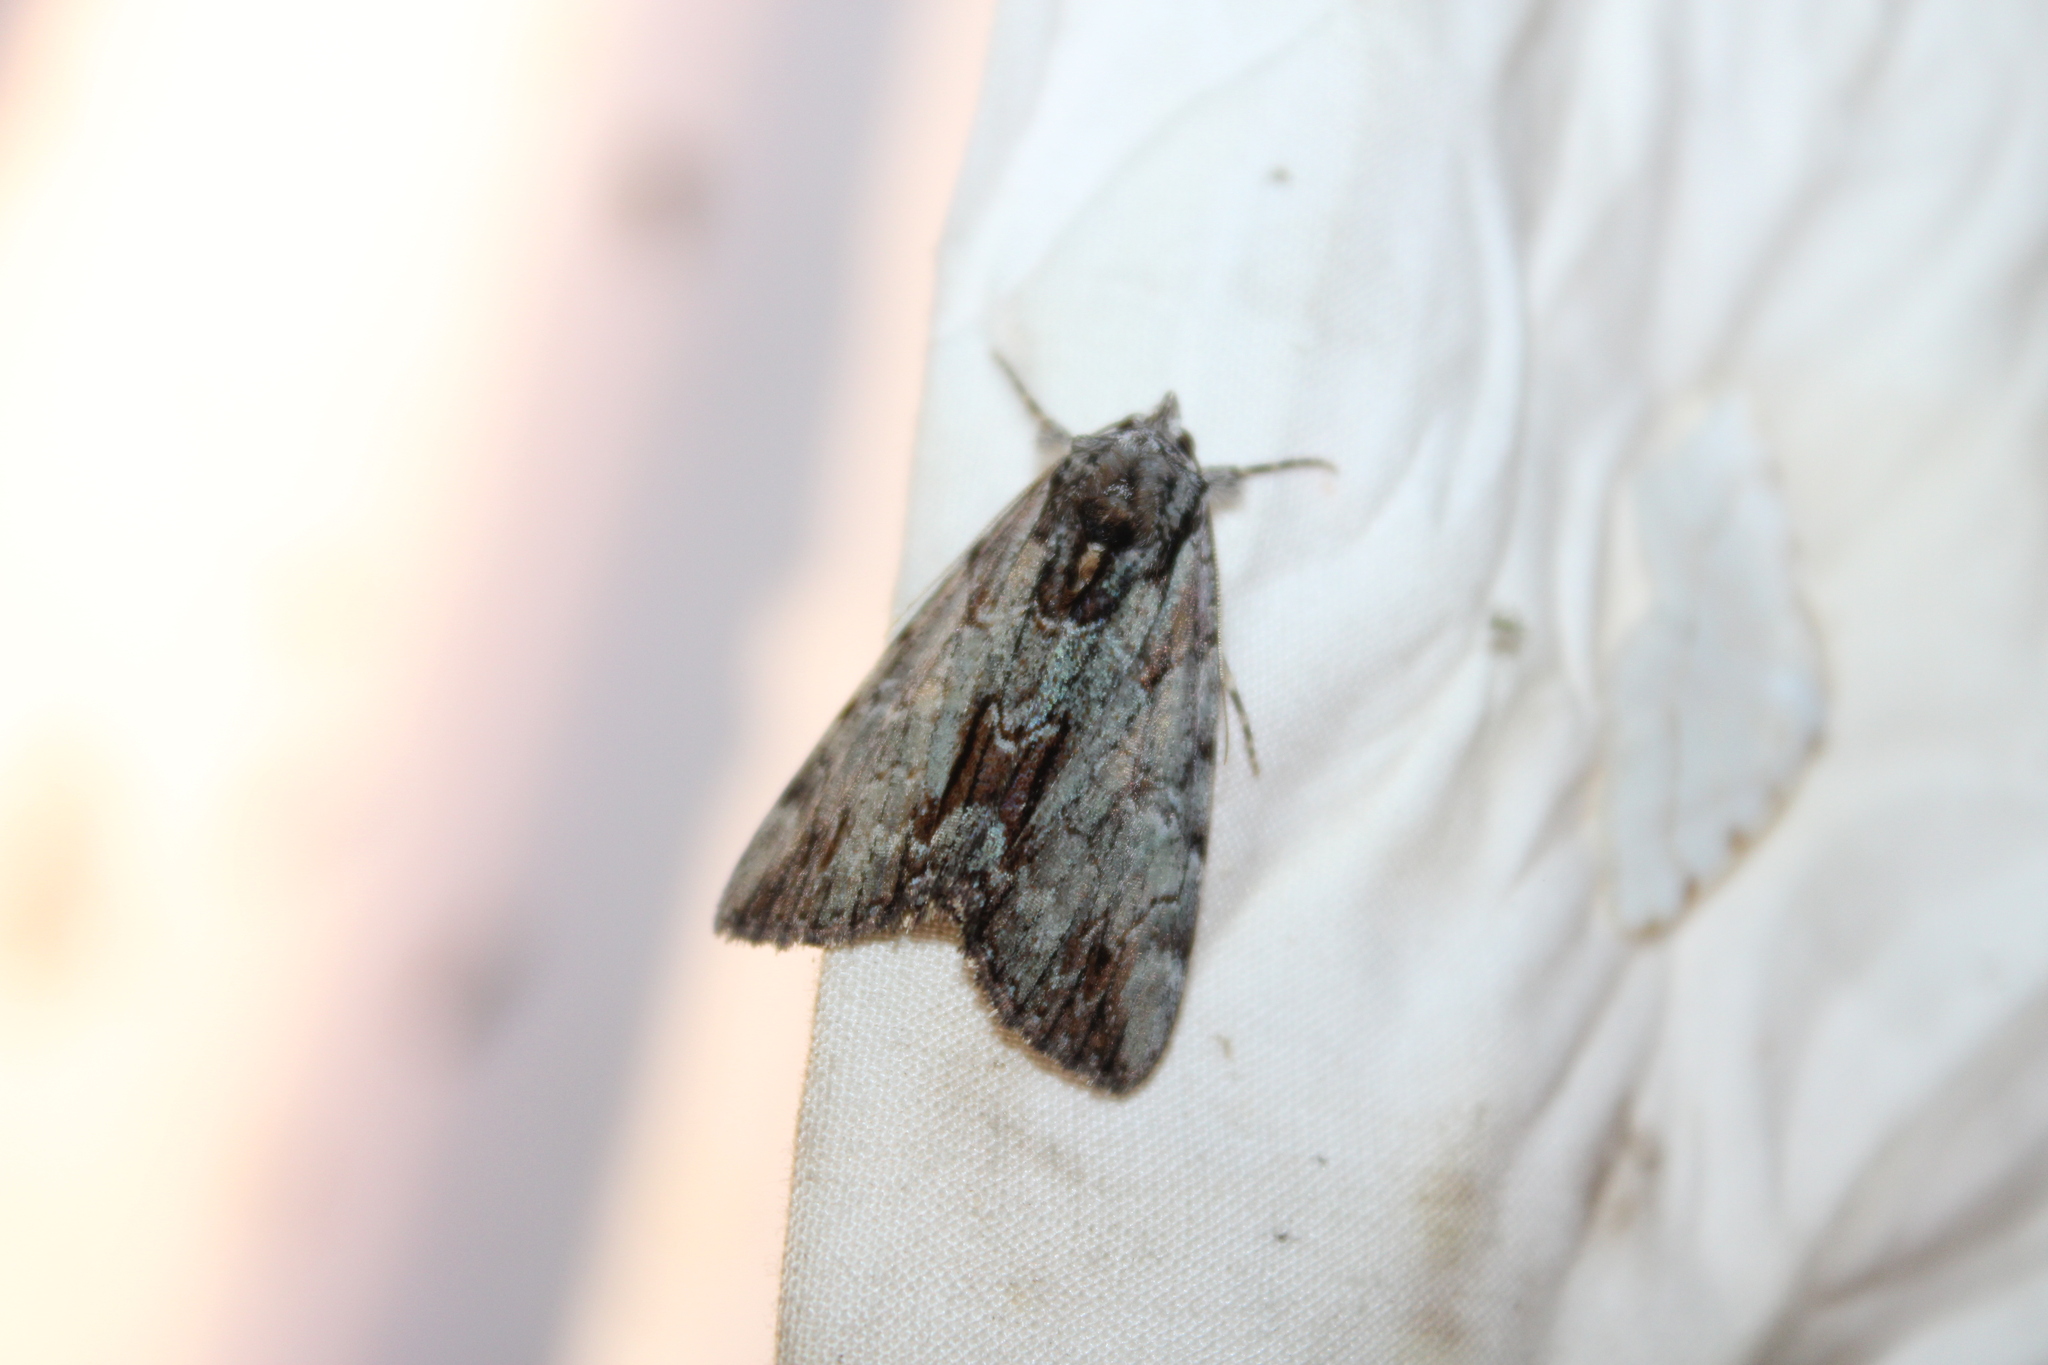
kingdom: Animalia
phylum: Arthropoda
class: Insecta
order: Lepidoptera
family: Erebidae
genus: Catocala
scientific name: Catocala praeclara
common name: Praeclara underwing
